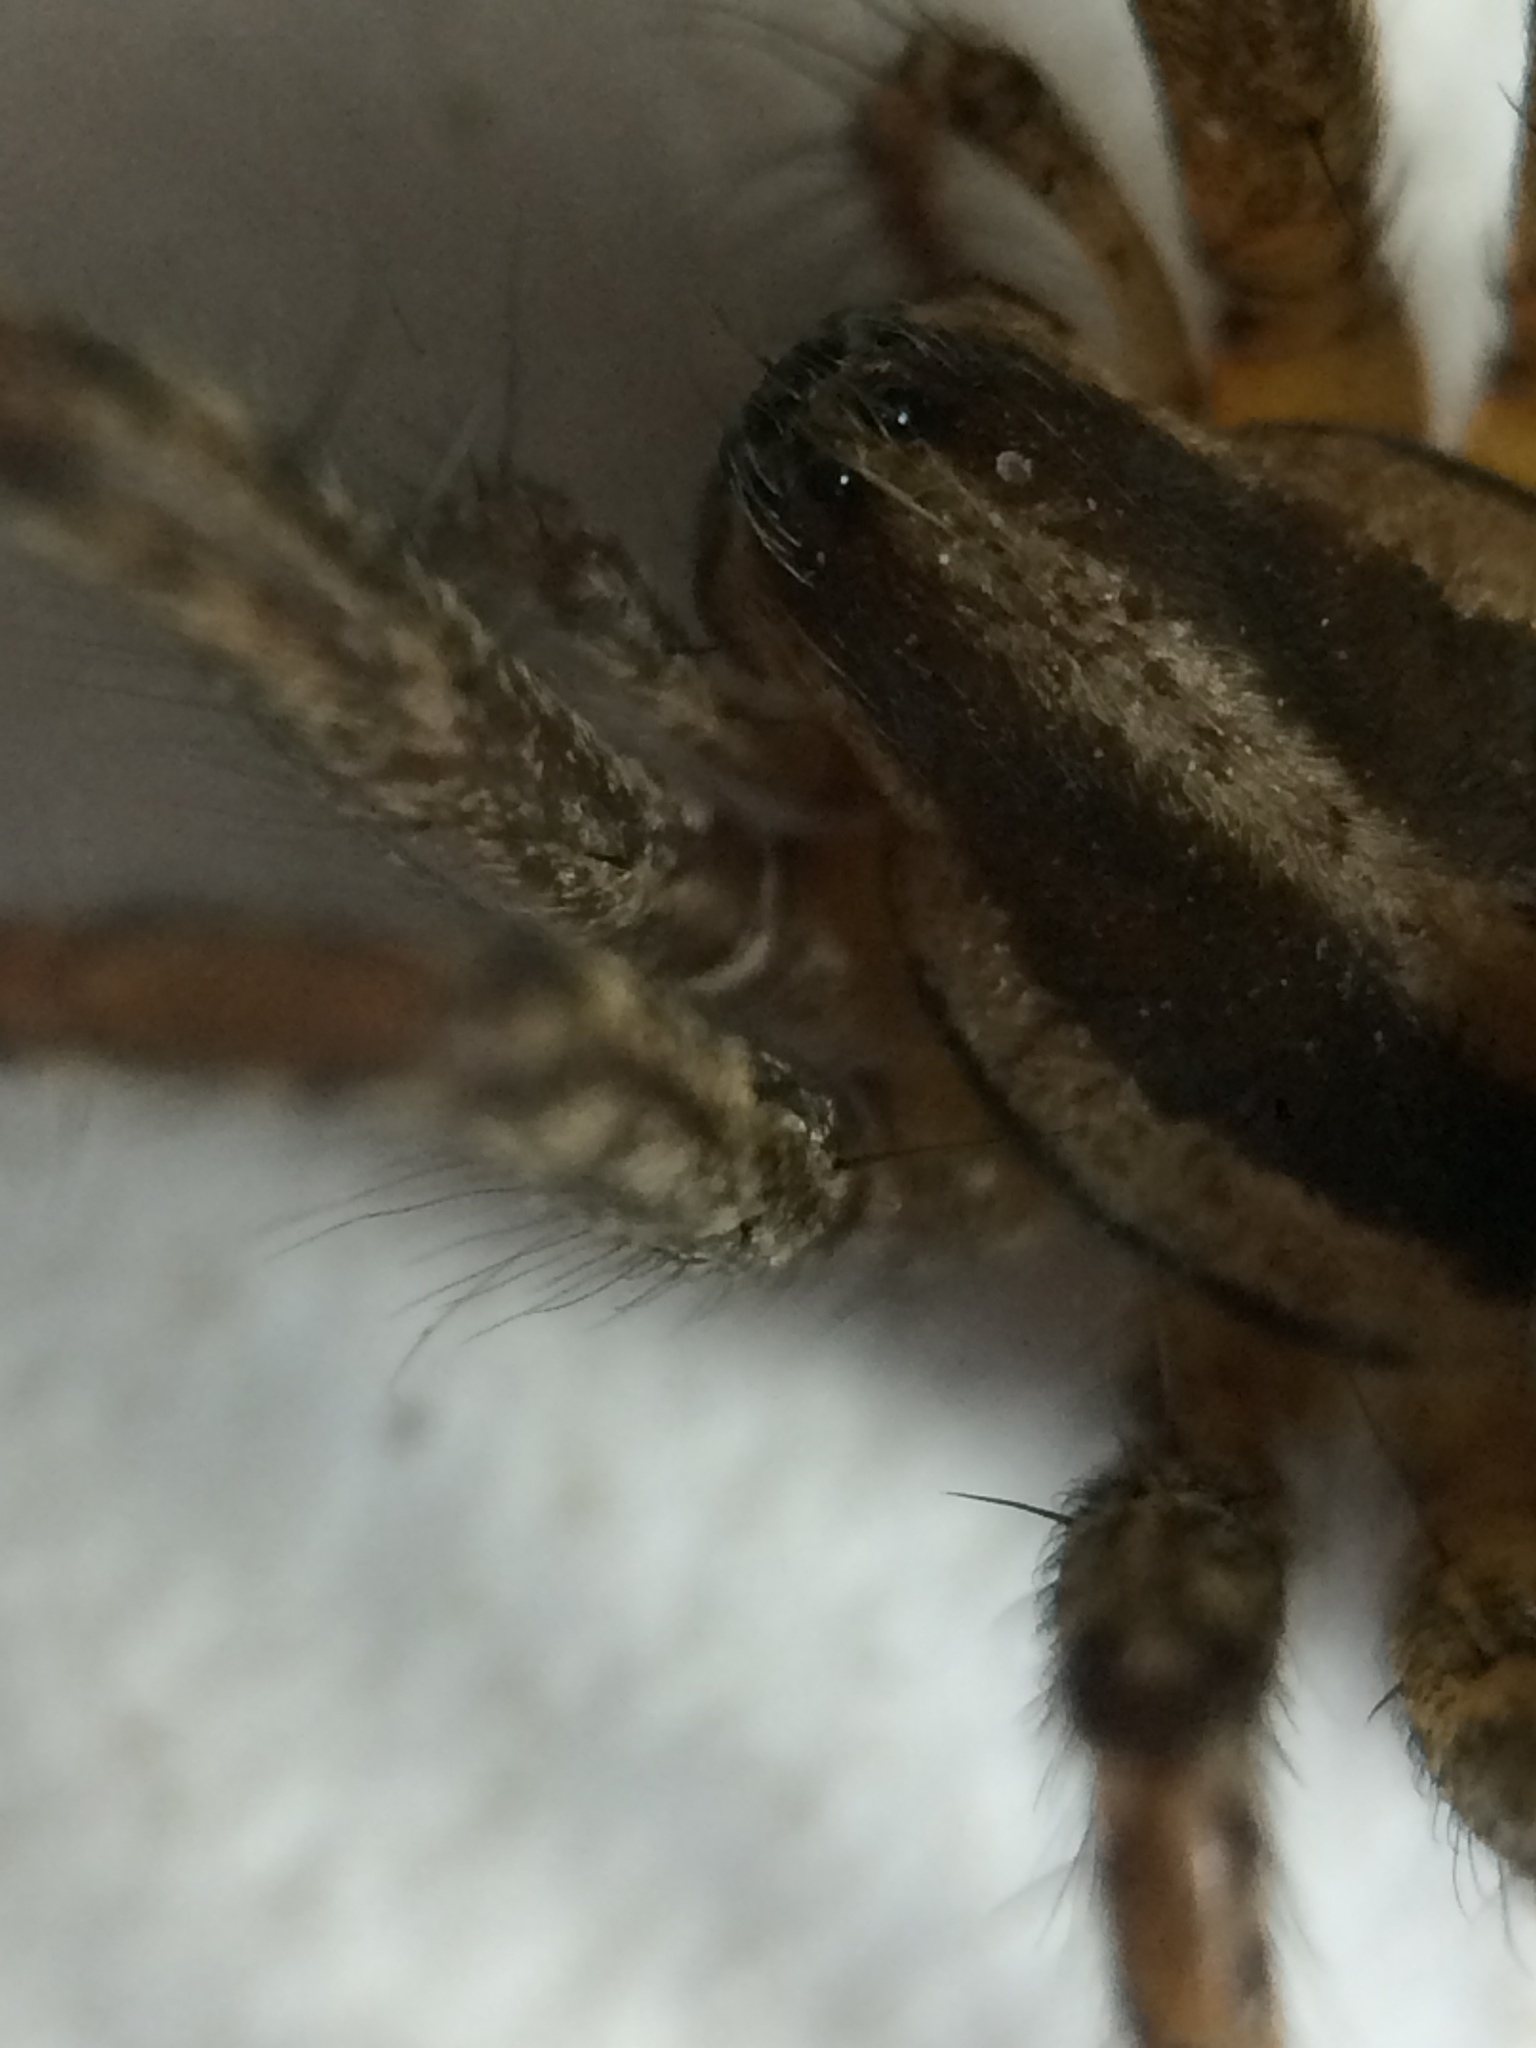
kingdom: Animalia
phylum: Arthropoda
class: Arachnida
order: Araneae
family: Agelenidae
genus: Agelenopsis
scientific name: Agelenopsis
